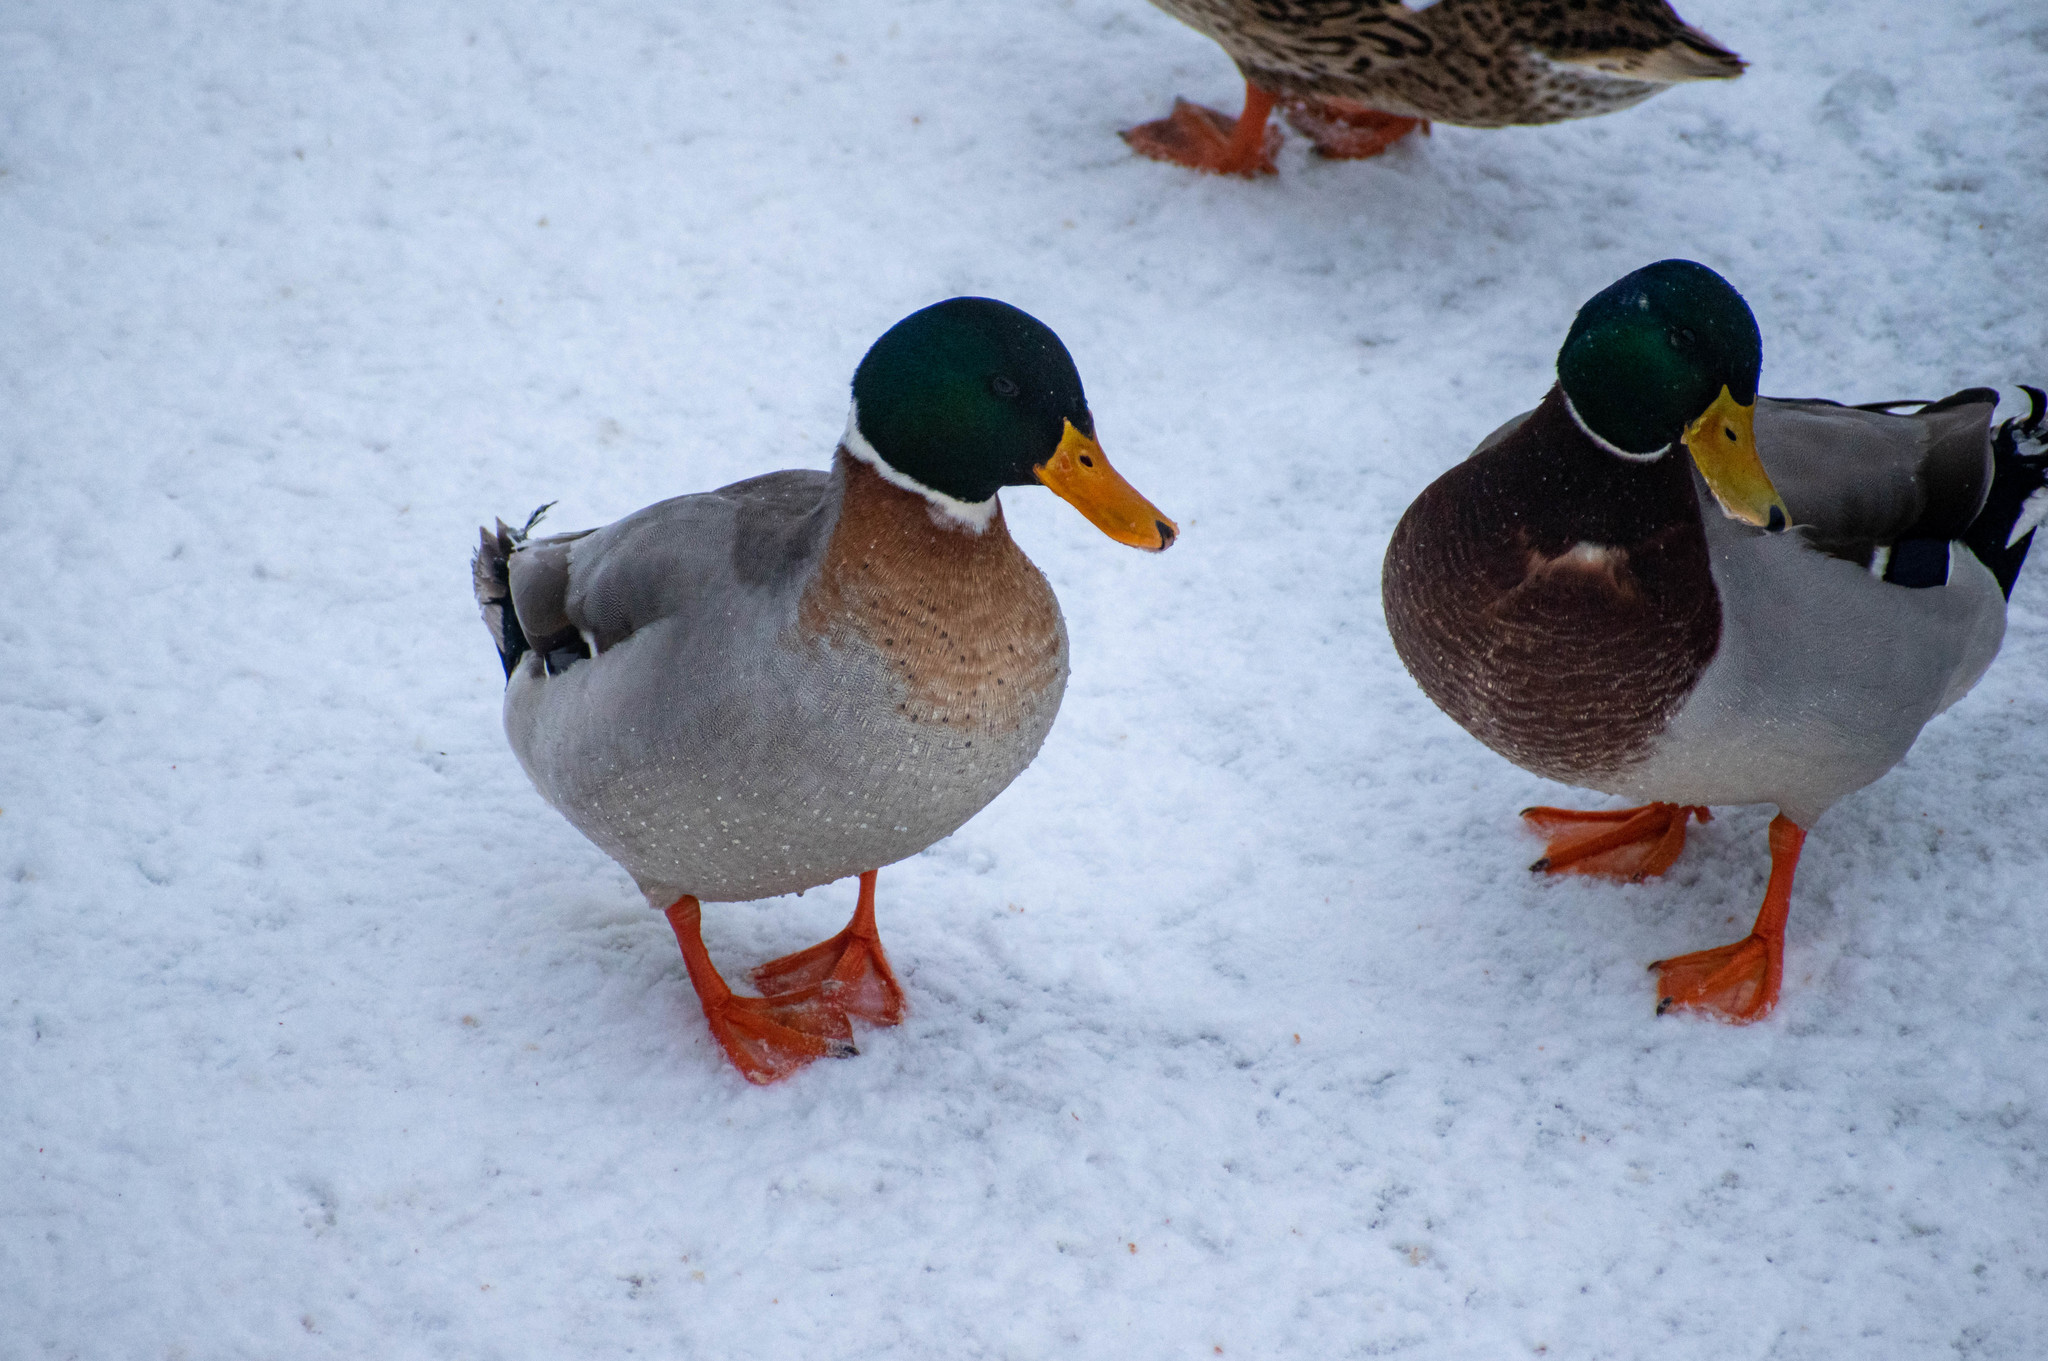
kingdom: Animalia
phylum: Chordata
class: Aves
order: Anseriformes
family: Anatidae
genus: Anas
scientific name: Anas platyrhynchos
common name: Mallard
